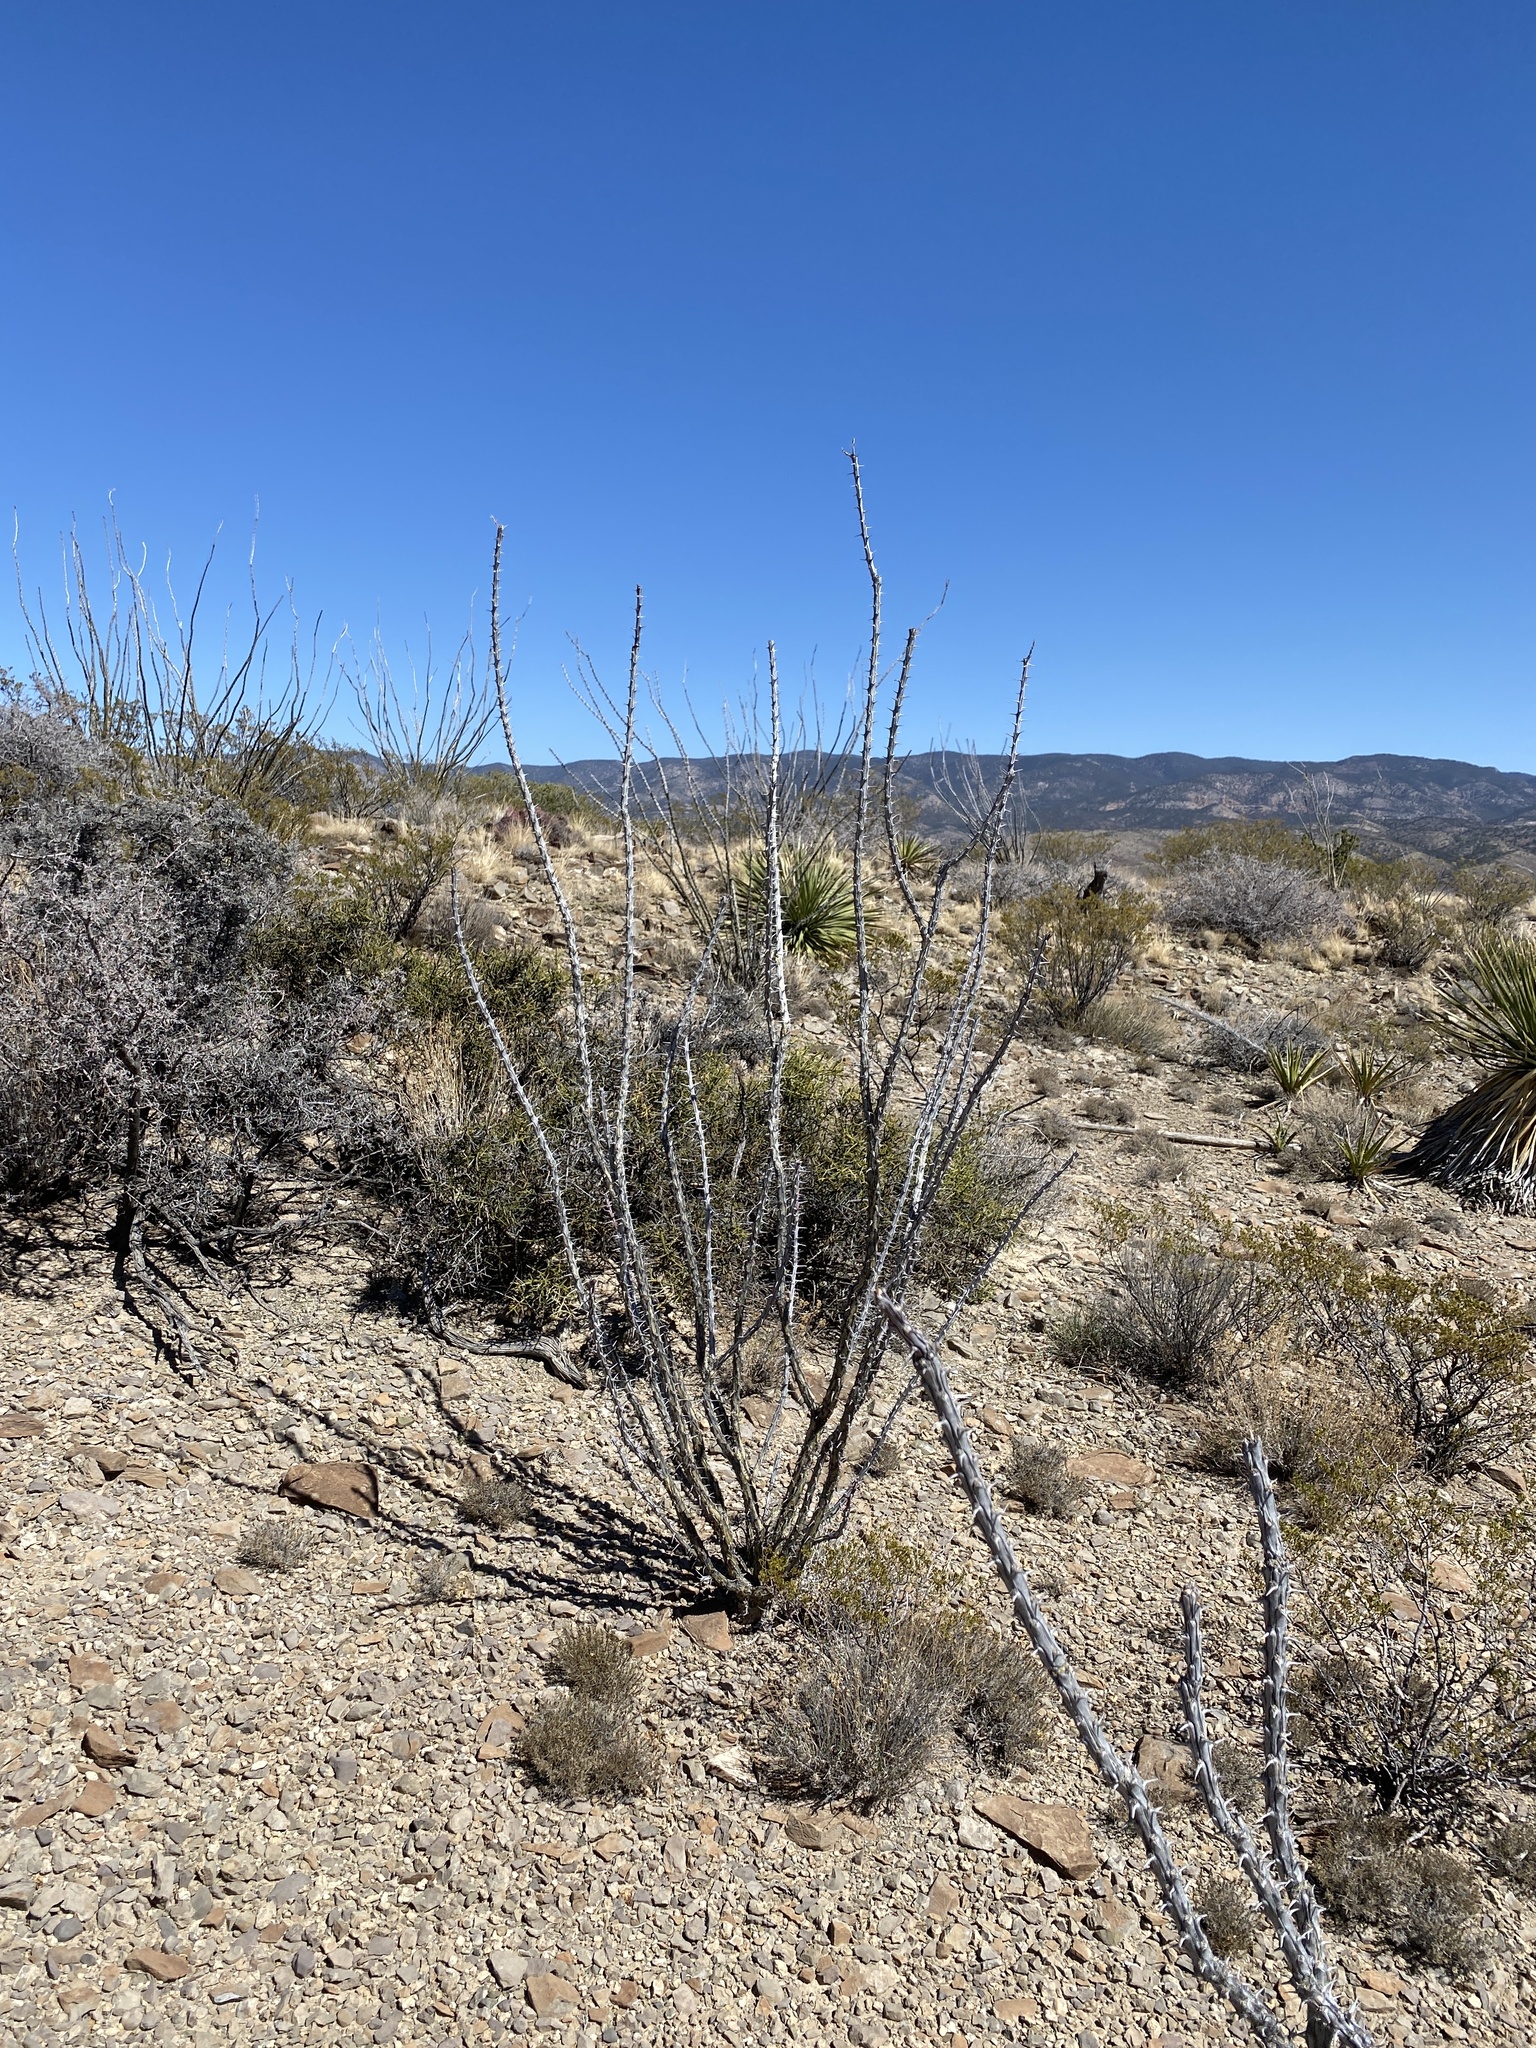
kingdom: Plantae
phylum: Tracheophyta
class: Magnoliopsida
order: Ericales
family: Fouquieriaceae
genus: Fouquieria
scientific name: Fouquieria splendens
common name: Vine-cactus
